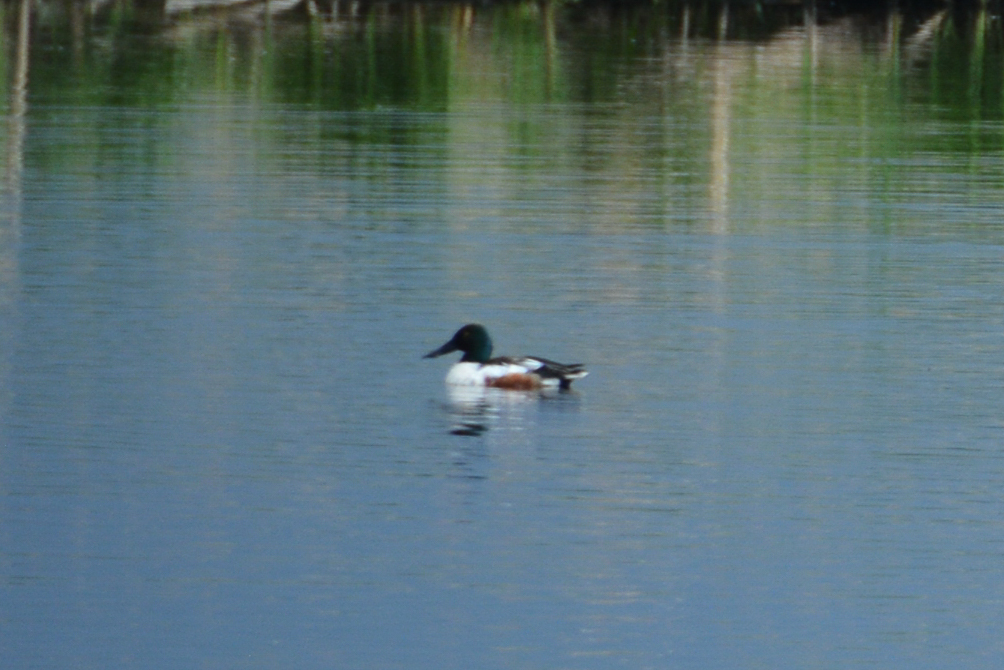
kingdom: Animalia
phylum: Chordata
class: Aves
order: Anseriformes
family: Anatidae
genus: Spatula
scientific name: Spatula clypeata
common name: Northern shoveler
